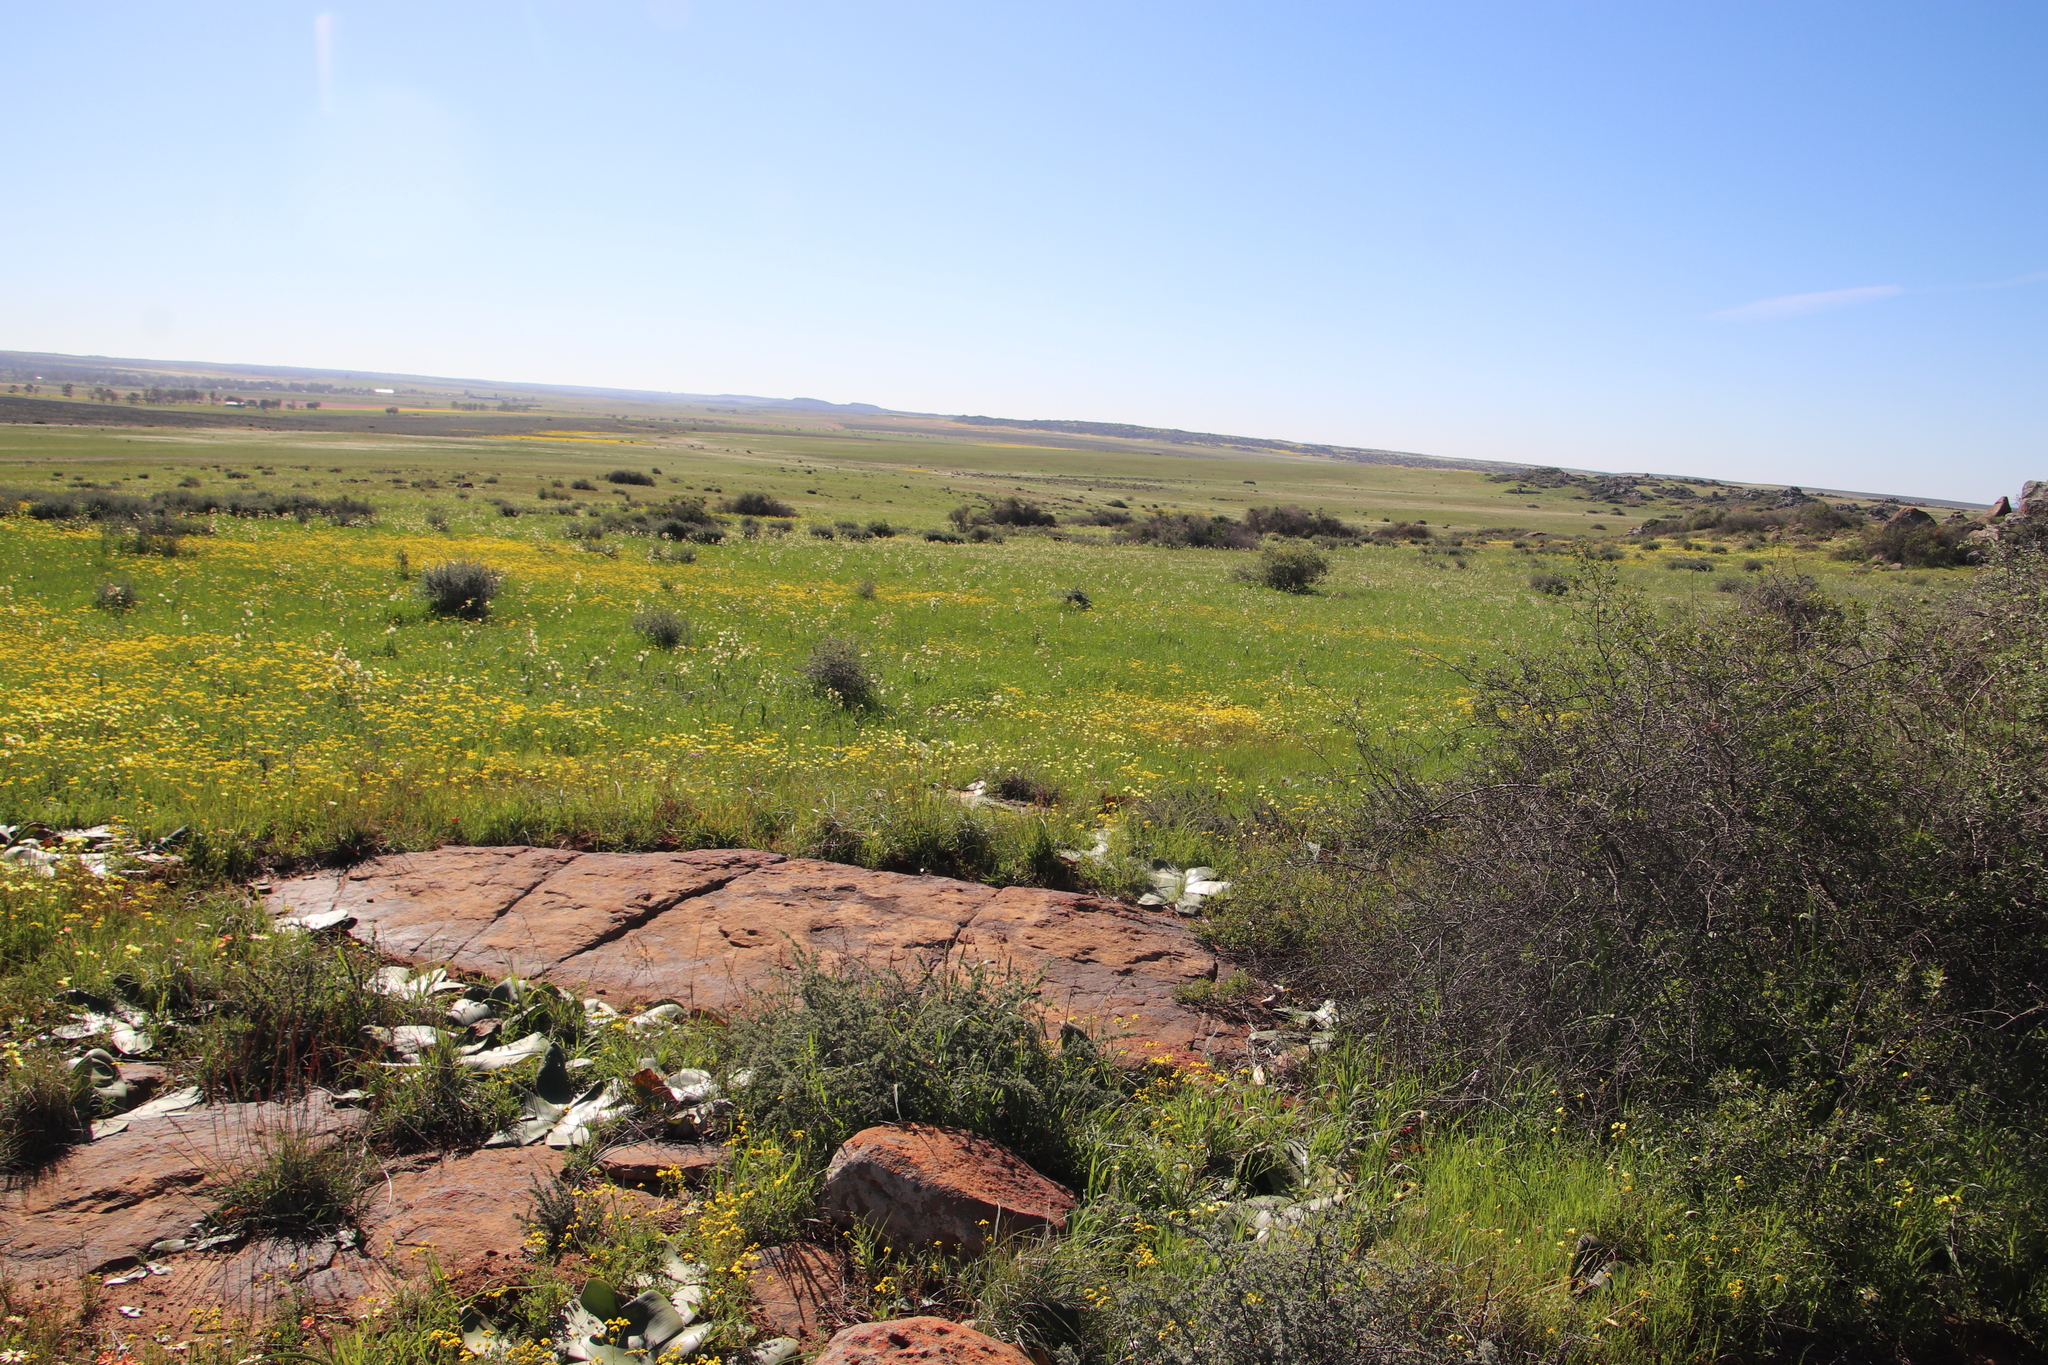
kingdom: Plantae
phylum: Tracheophyta
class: Magnoliopsida
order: Asterales
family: Asteraceae
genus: Senecio
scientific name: Senecio abruptus
